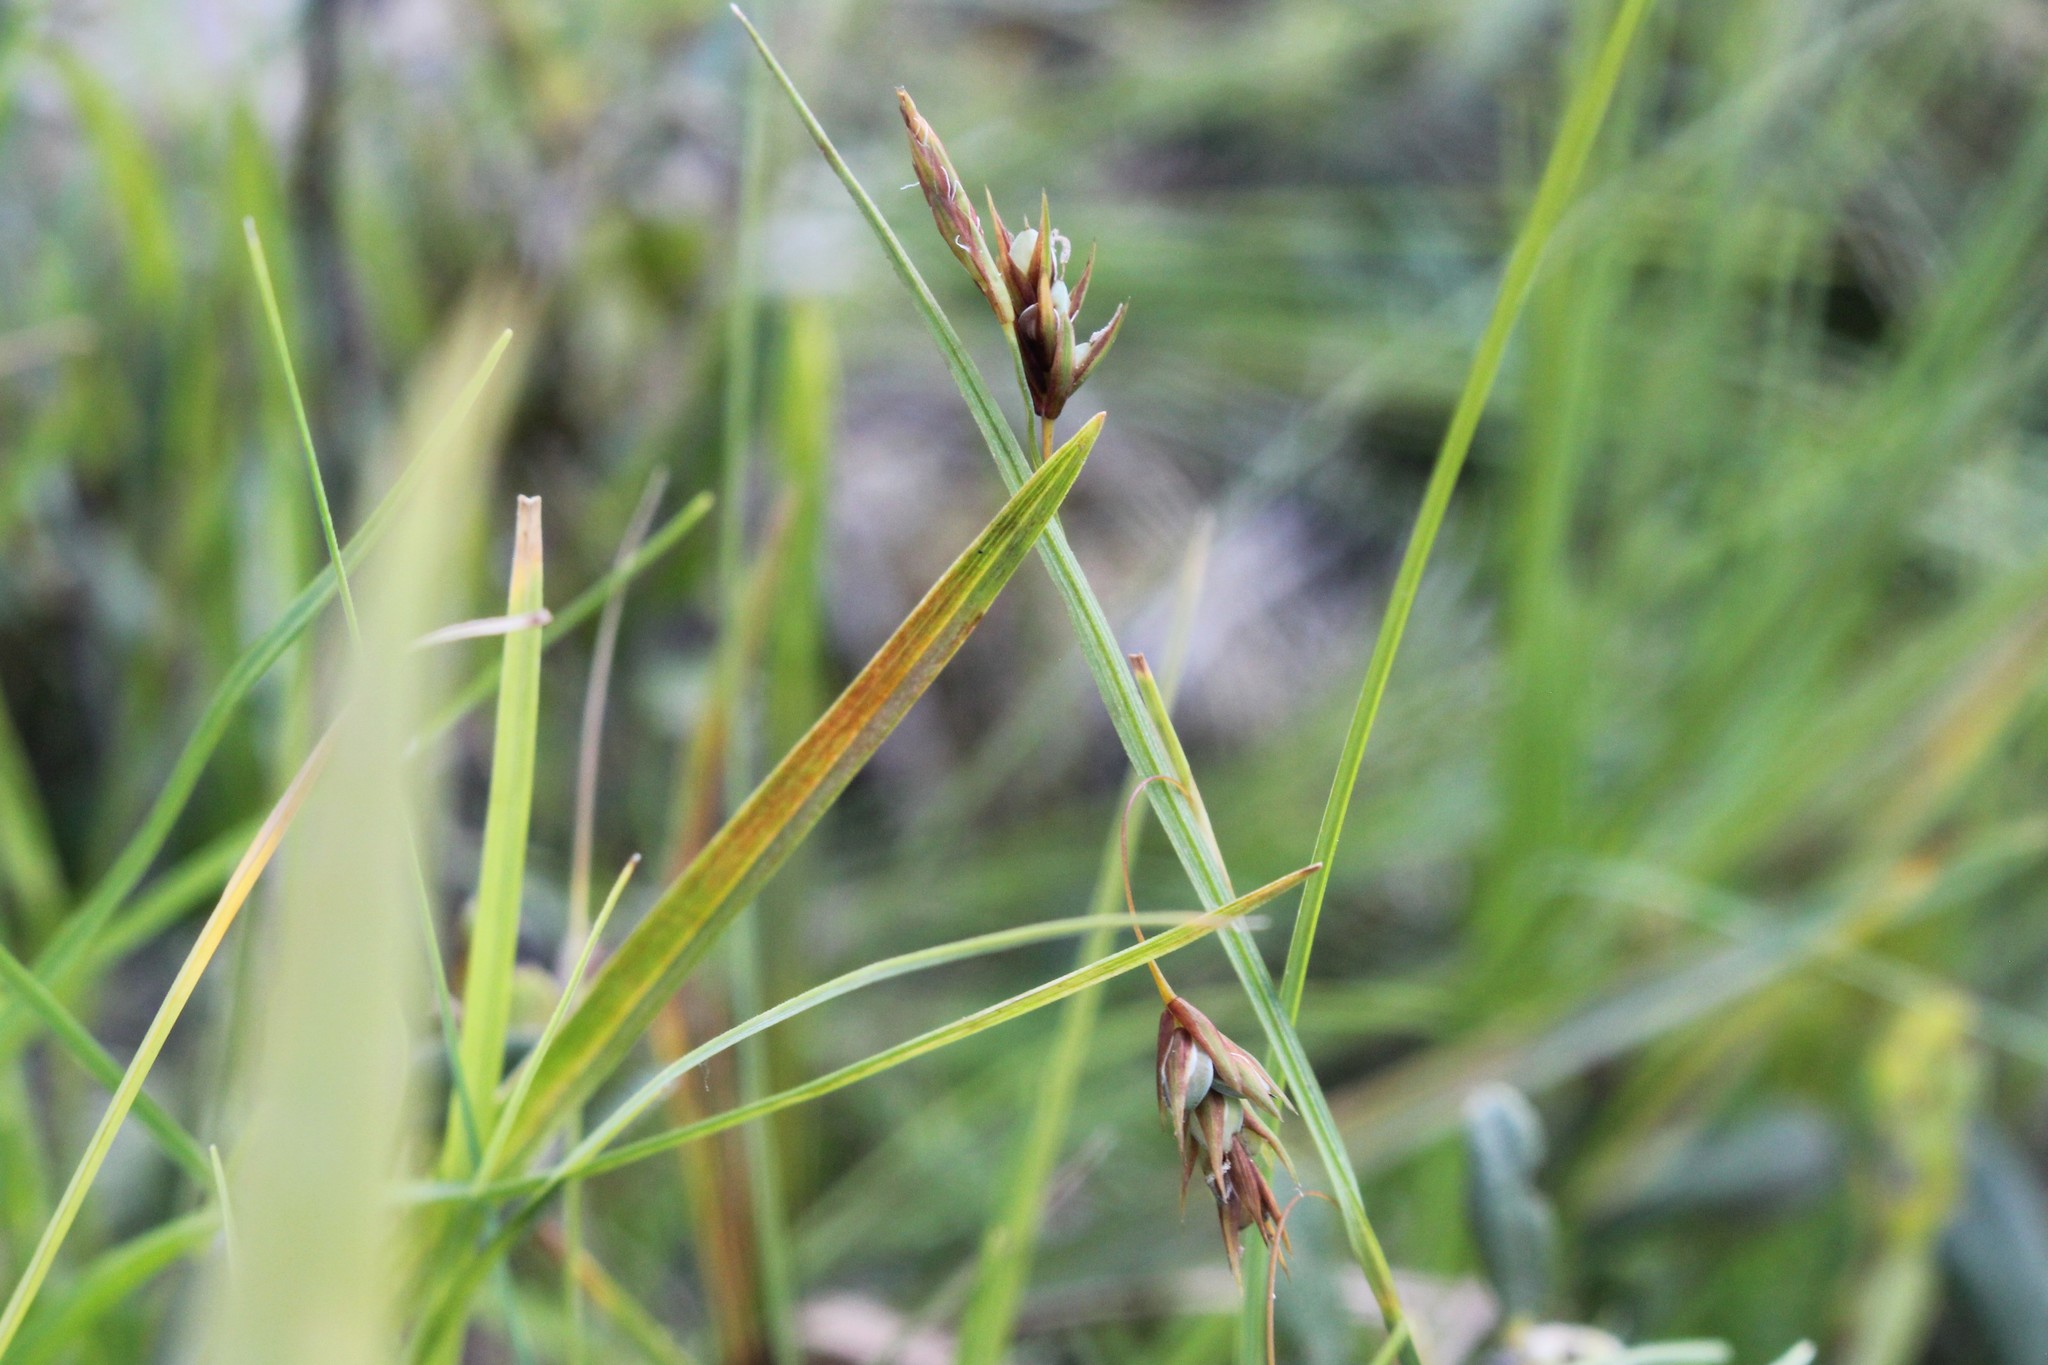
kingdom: Plantae
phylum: Tracheophyta
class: Liliopsida
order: Poales
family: Cyperaceae
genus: Carex
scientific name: Carex magellanica
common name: Bog sedge
